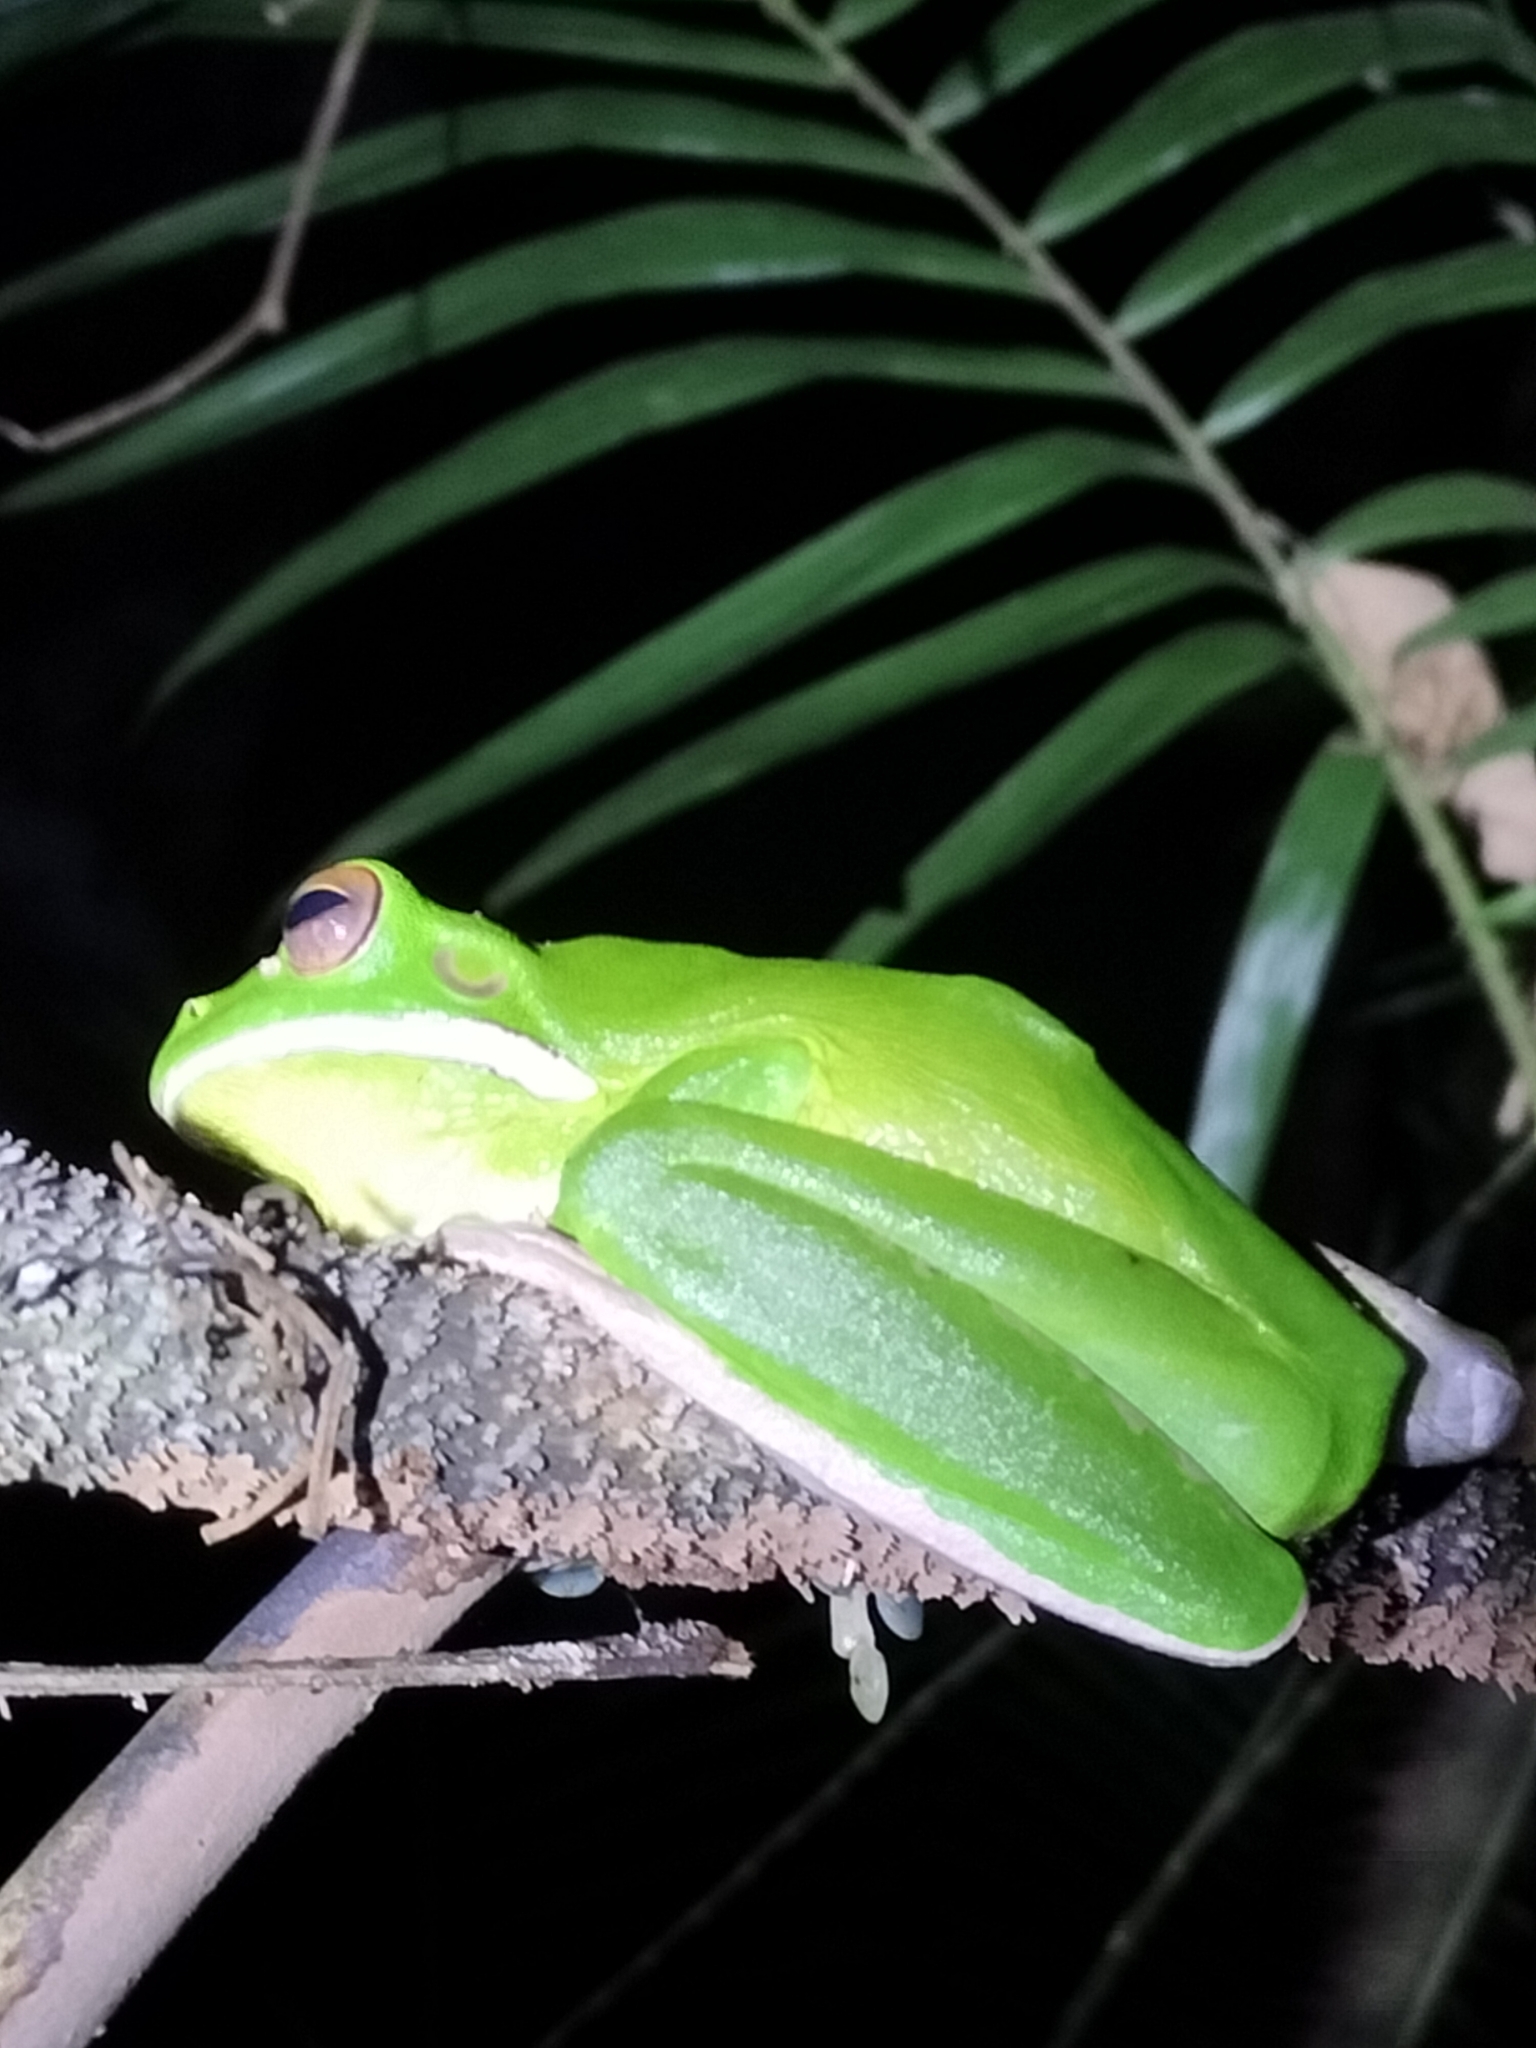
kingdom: Animalia
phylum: Chordata
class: Amphibia
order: Anura
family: Pelodryadidae
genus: Nyctimystes
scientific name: Nyctimystes infrafrenatus
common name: Australian giant treefrog
